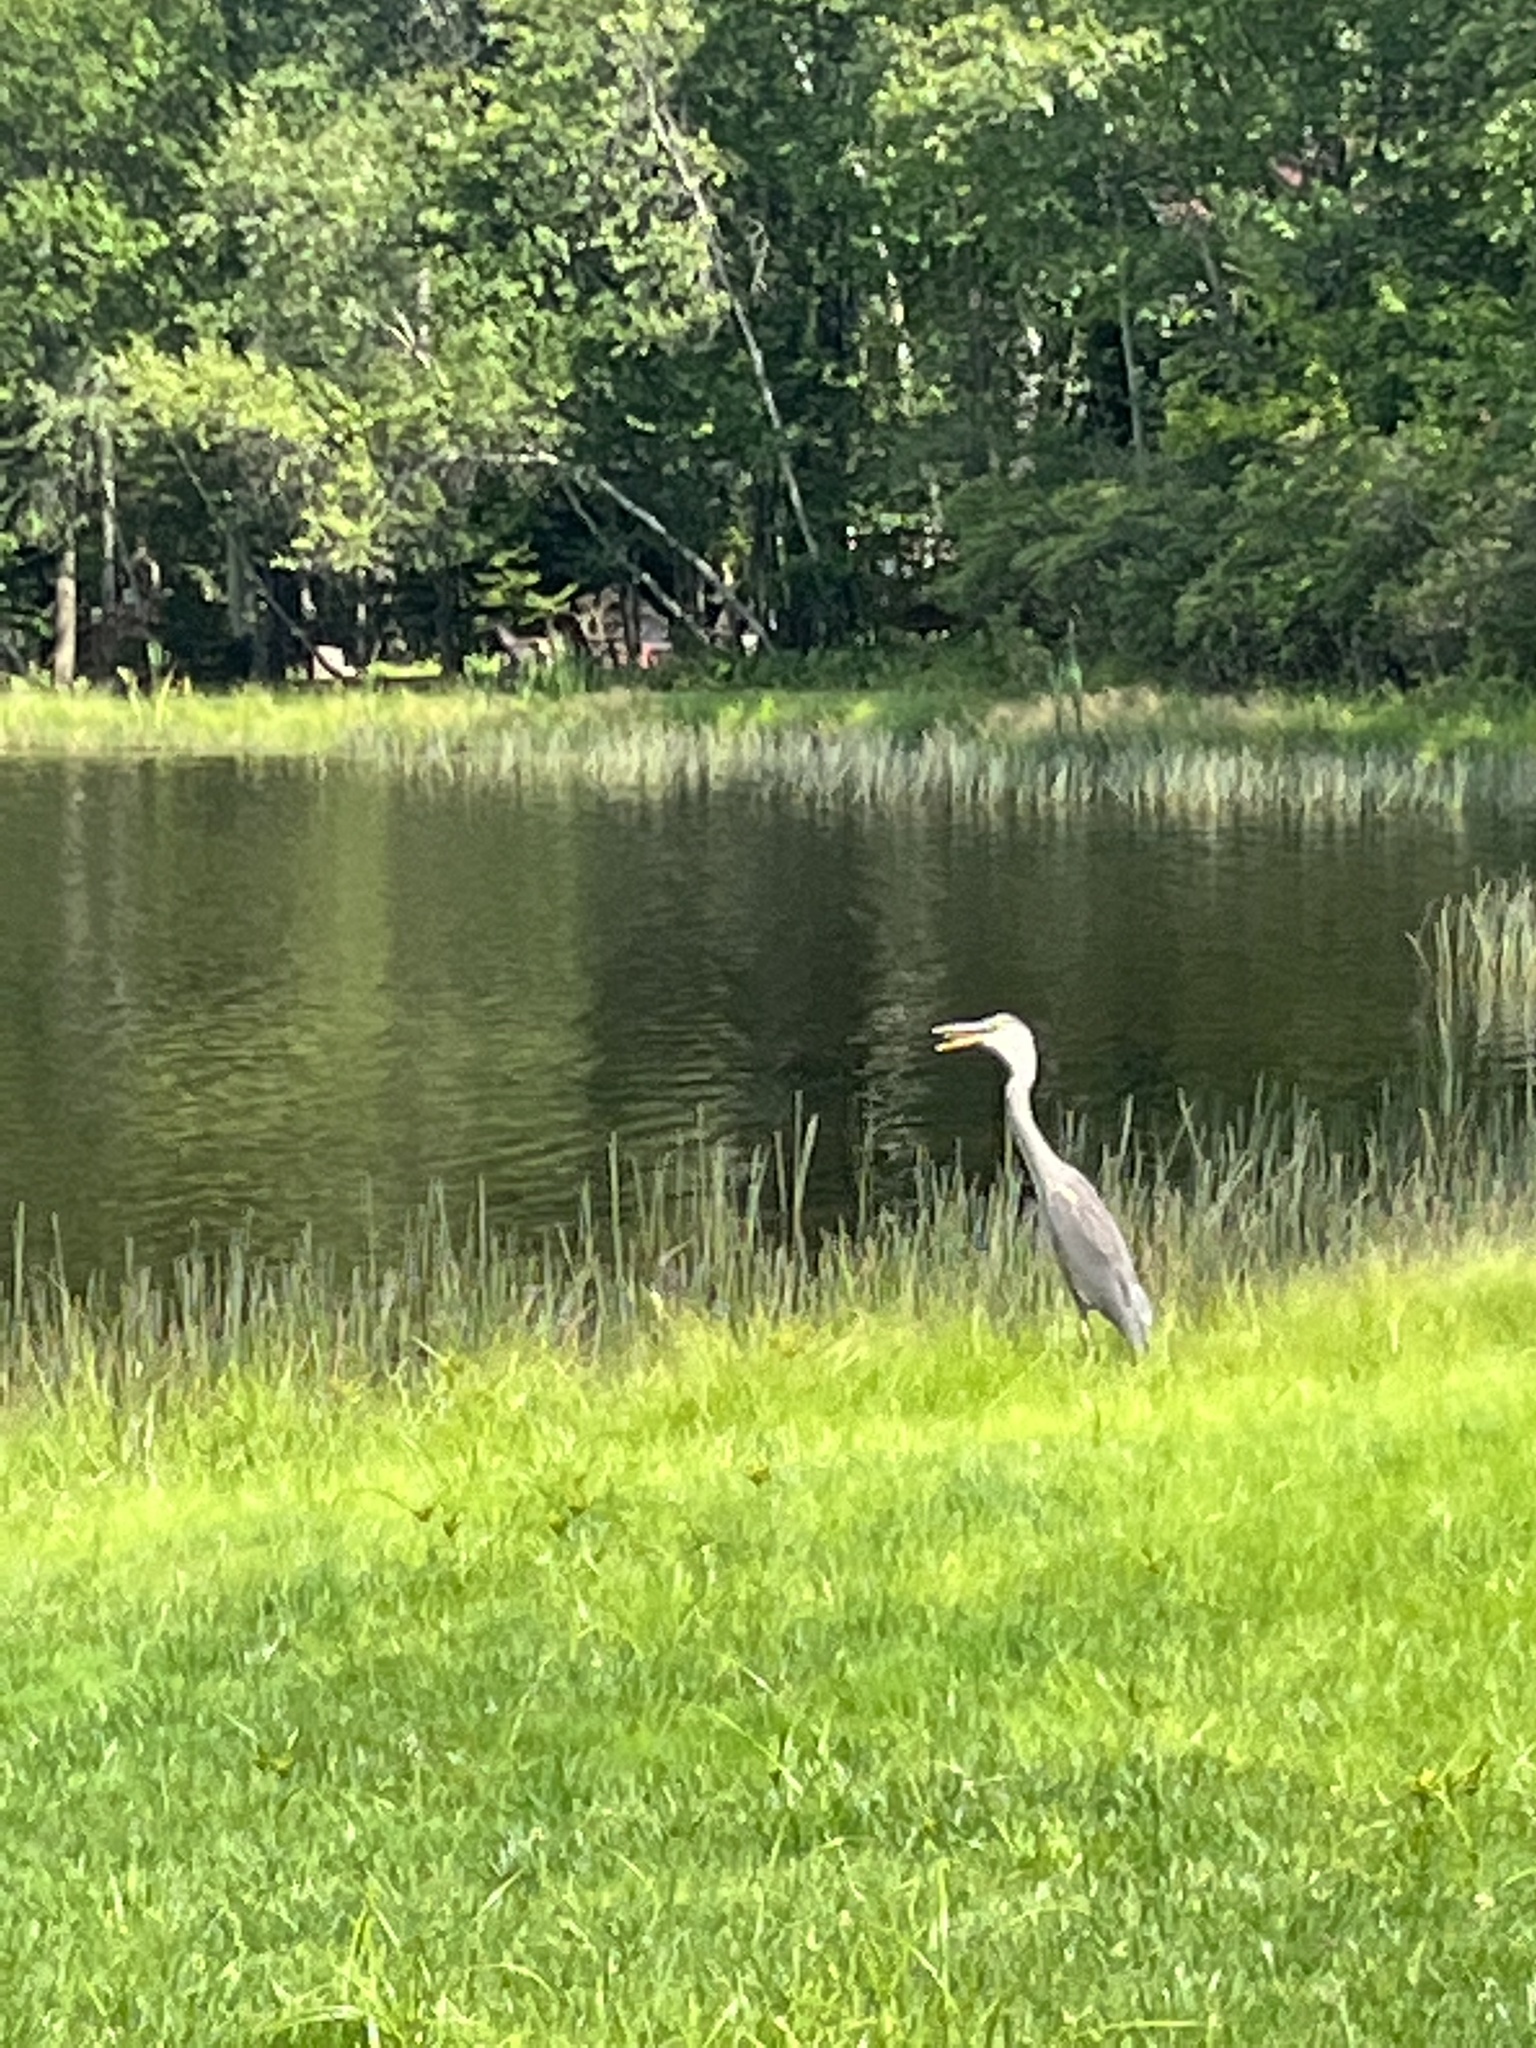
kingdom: Animalia
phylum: Chordata
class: Aves
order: Pelecaniformes
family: Ardeidae
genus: Ardea
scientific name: Ardea herodias
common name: Great blue heron
